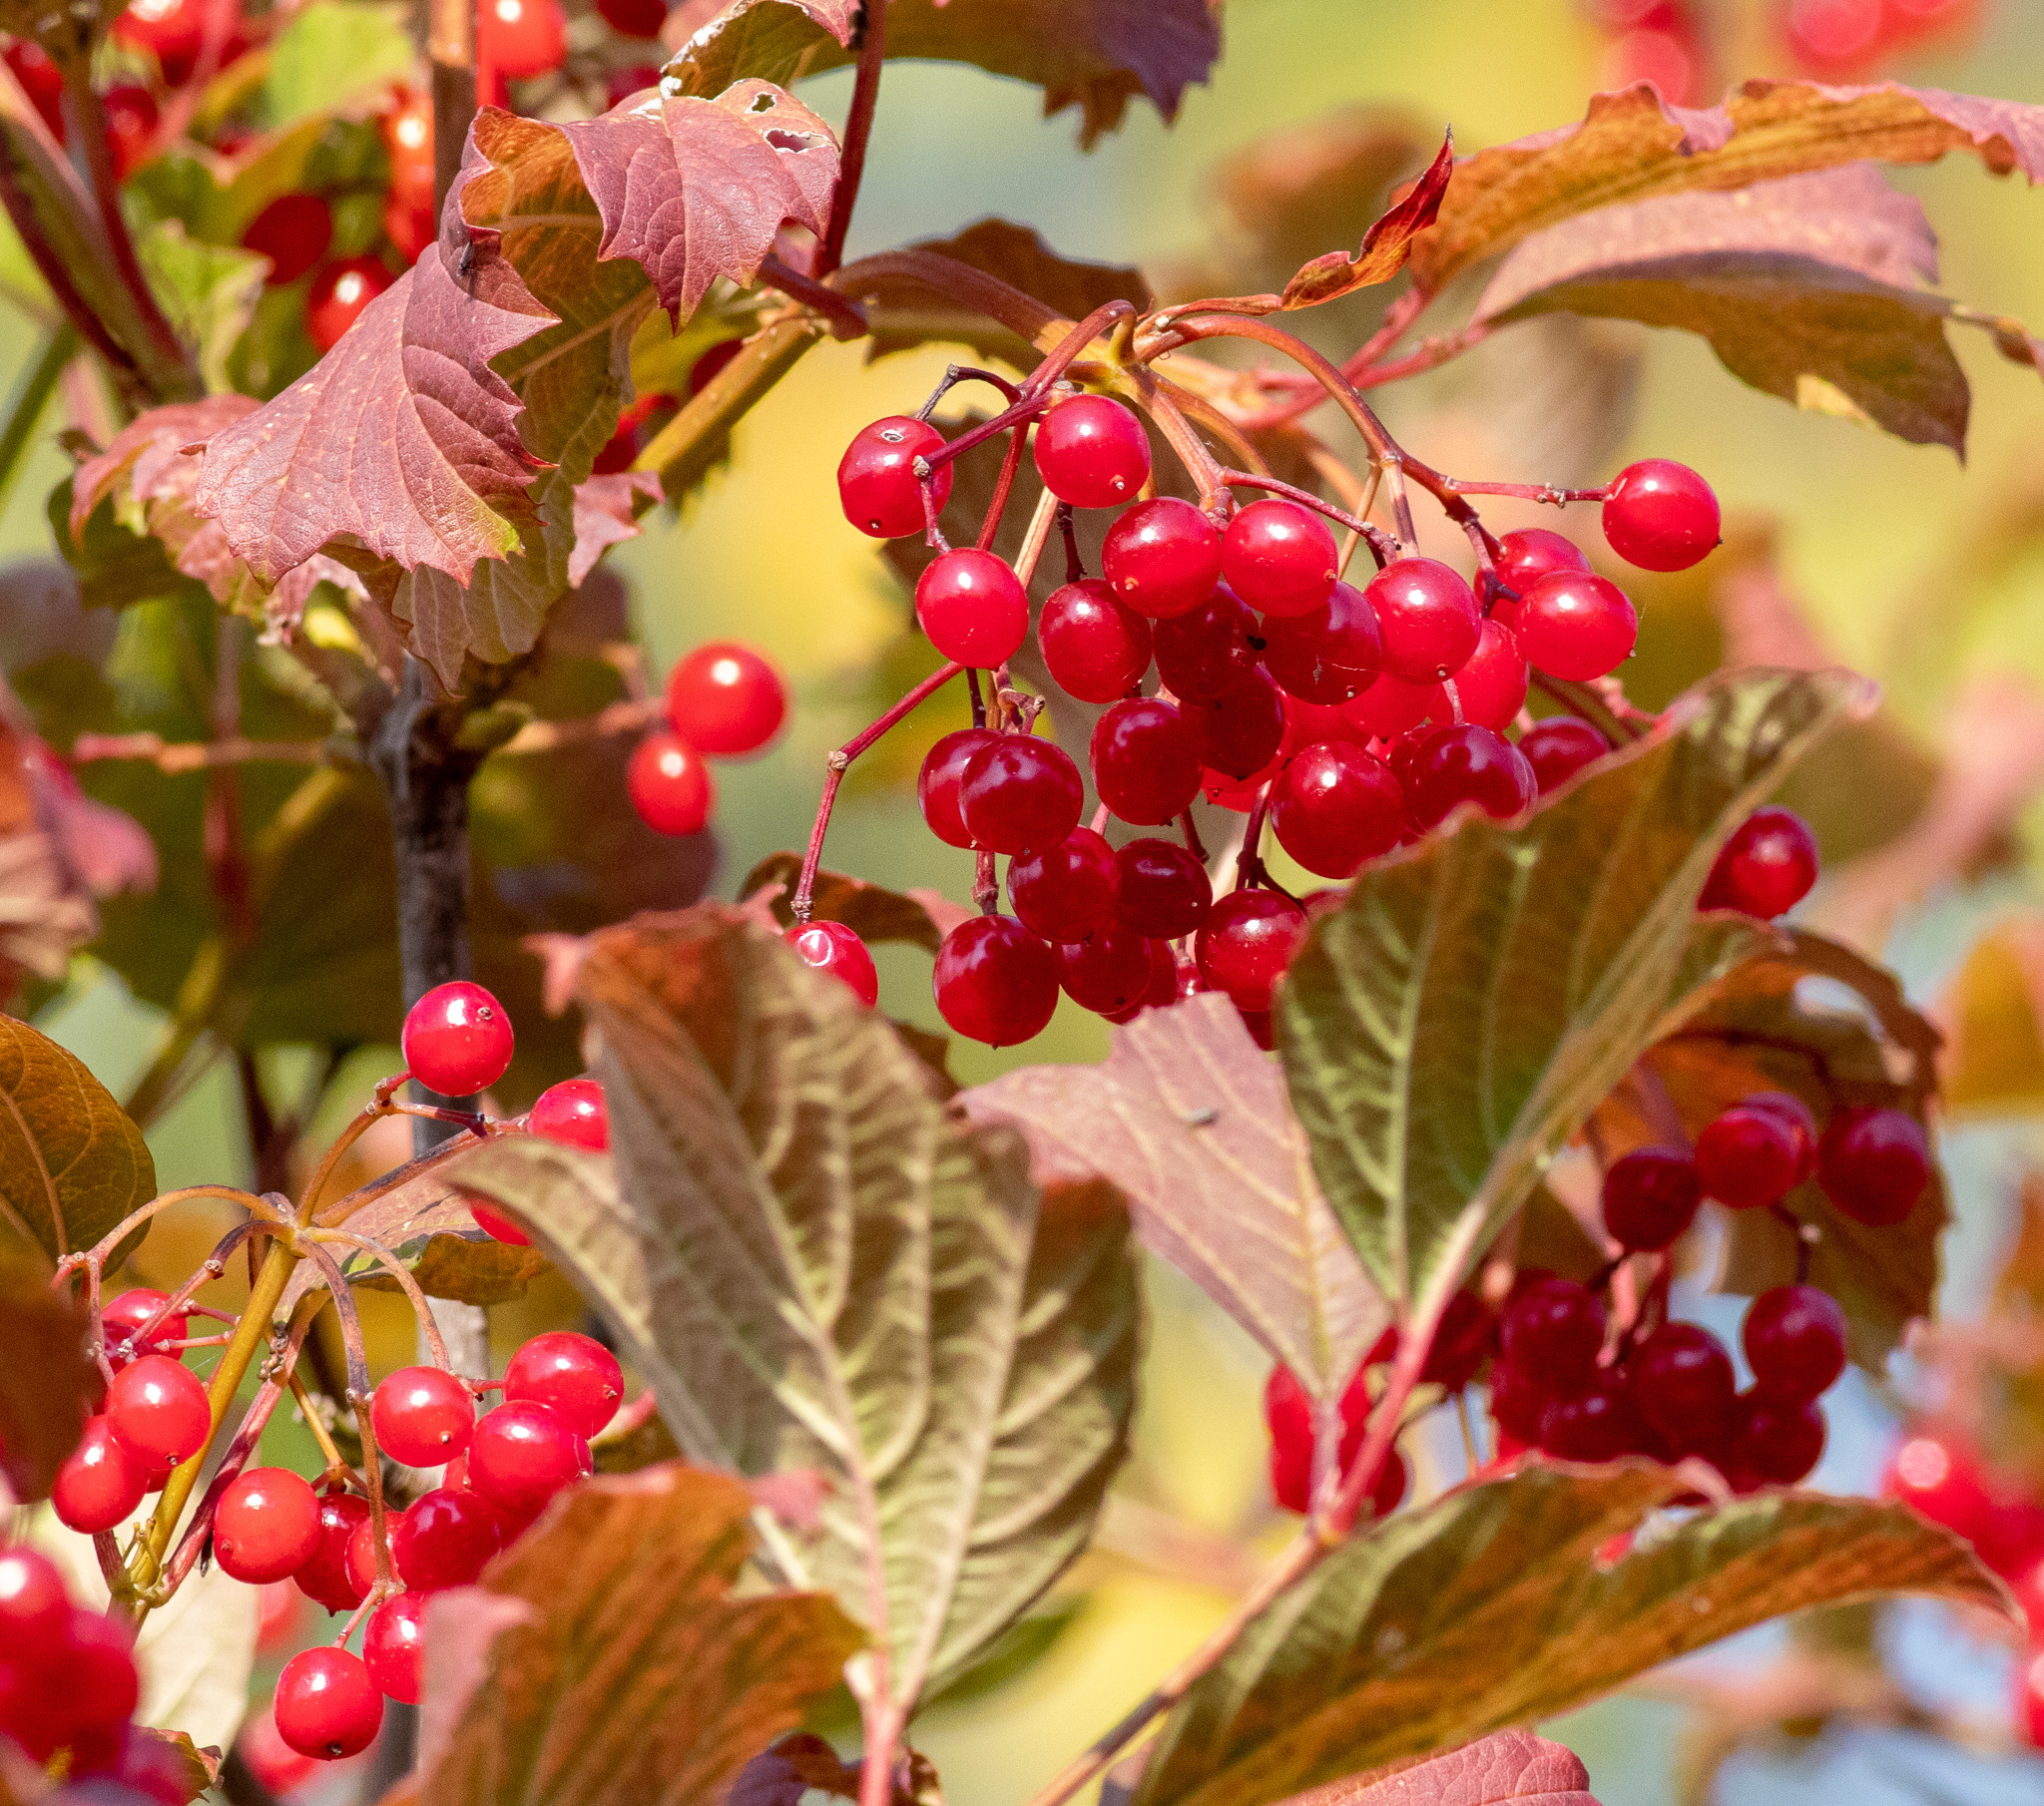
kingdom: Plantae
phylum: Tracheophyta
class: Magnoliopsida
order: Dipsacales
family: Viburnaceae
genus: Viburnum
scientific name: Viburnum opulus
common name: Guelder-rose
